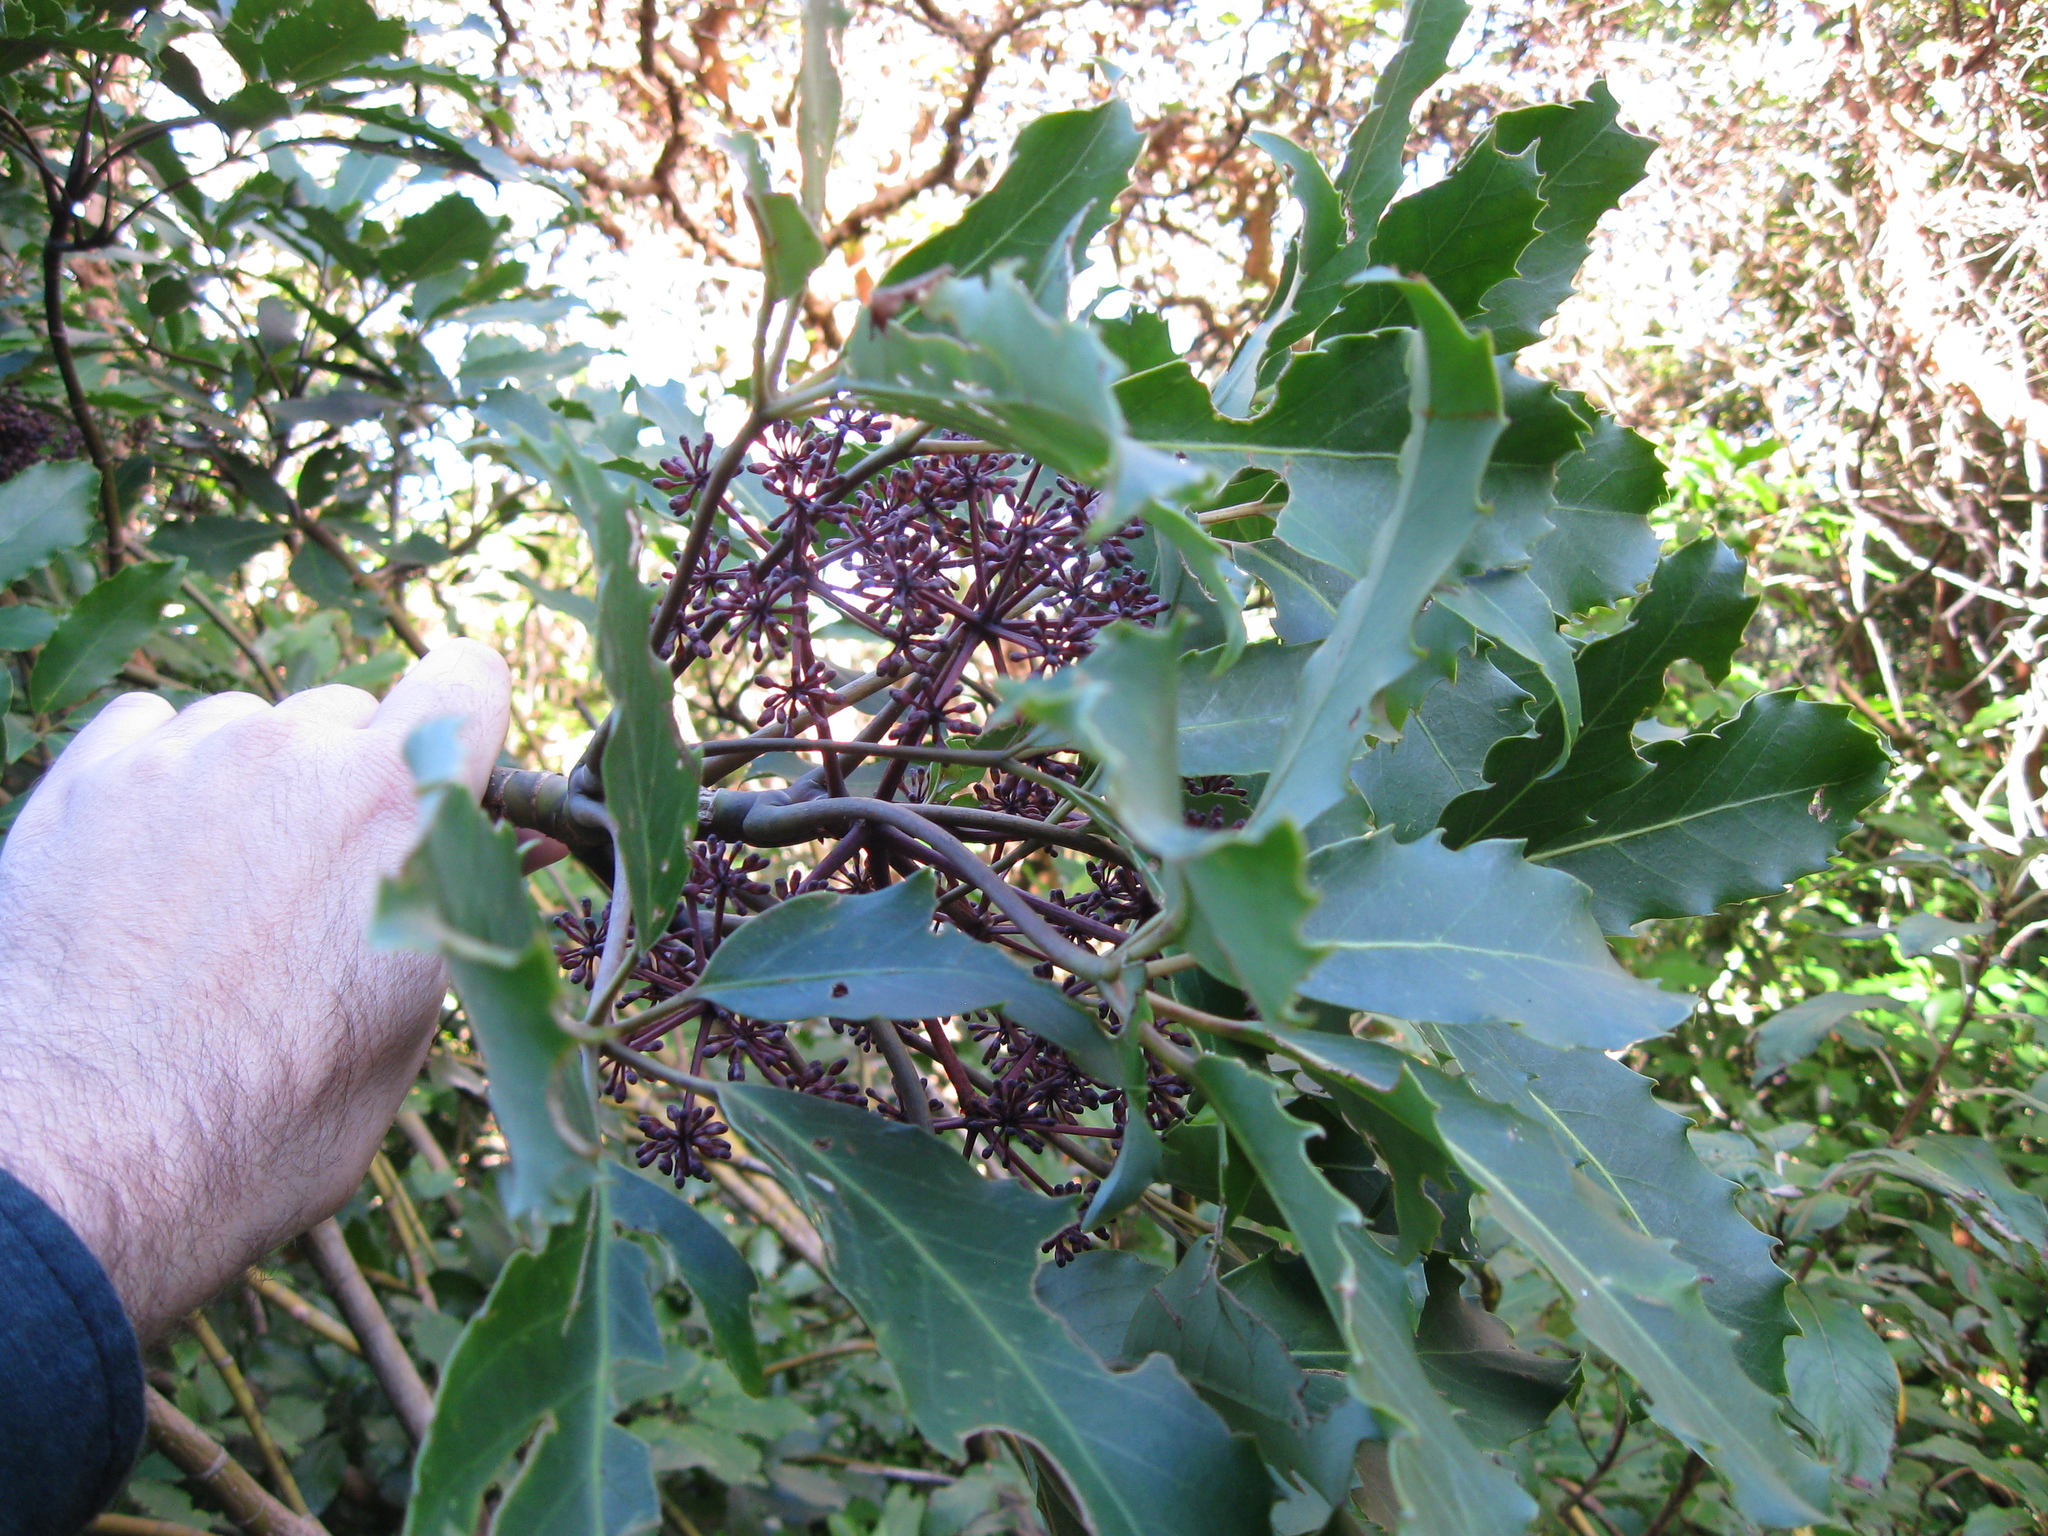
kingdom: Plantae
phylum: Tracheophyta
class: Magnoliopsida
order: Apiales
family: Araliaceae
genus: Neopanax
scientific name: Neopanax arboreus
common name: Five-fingers
